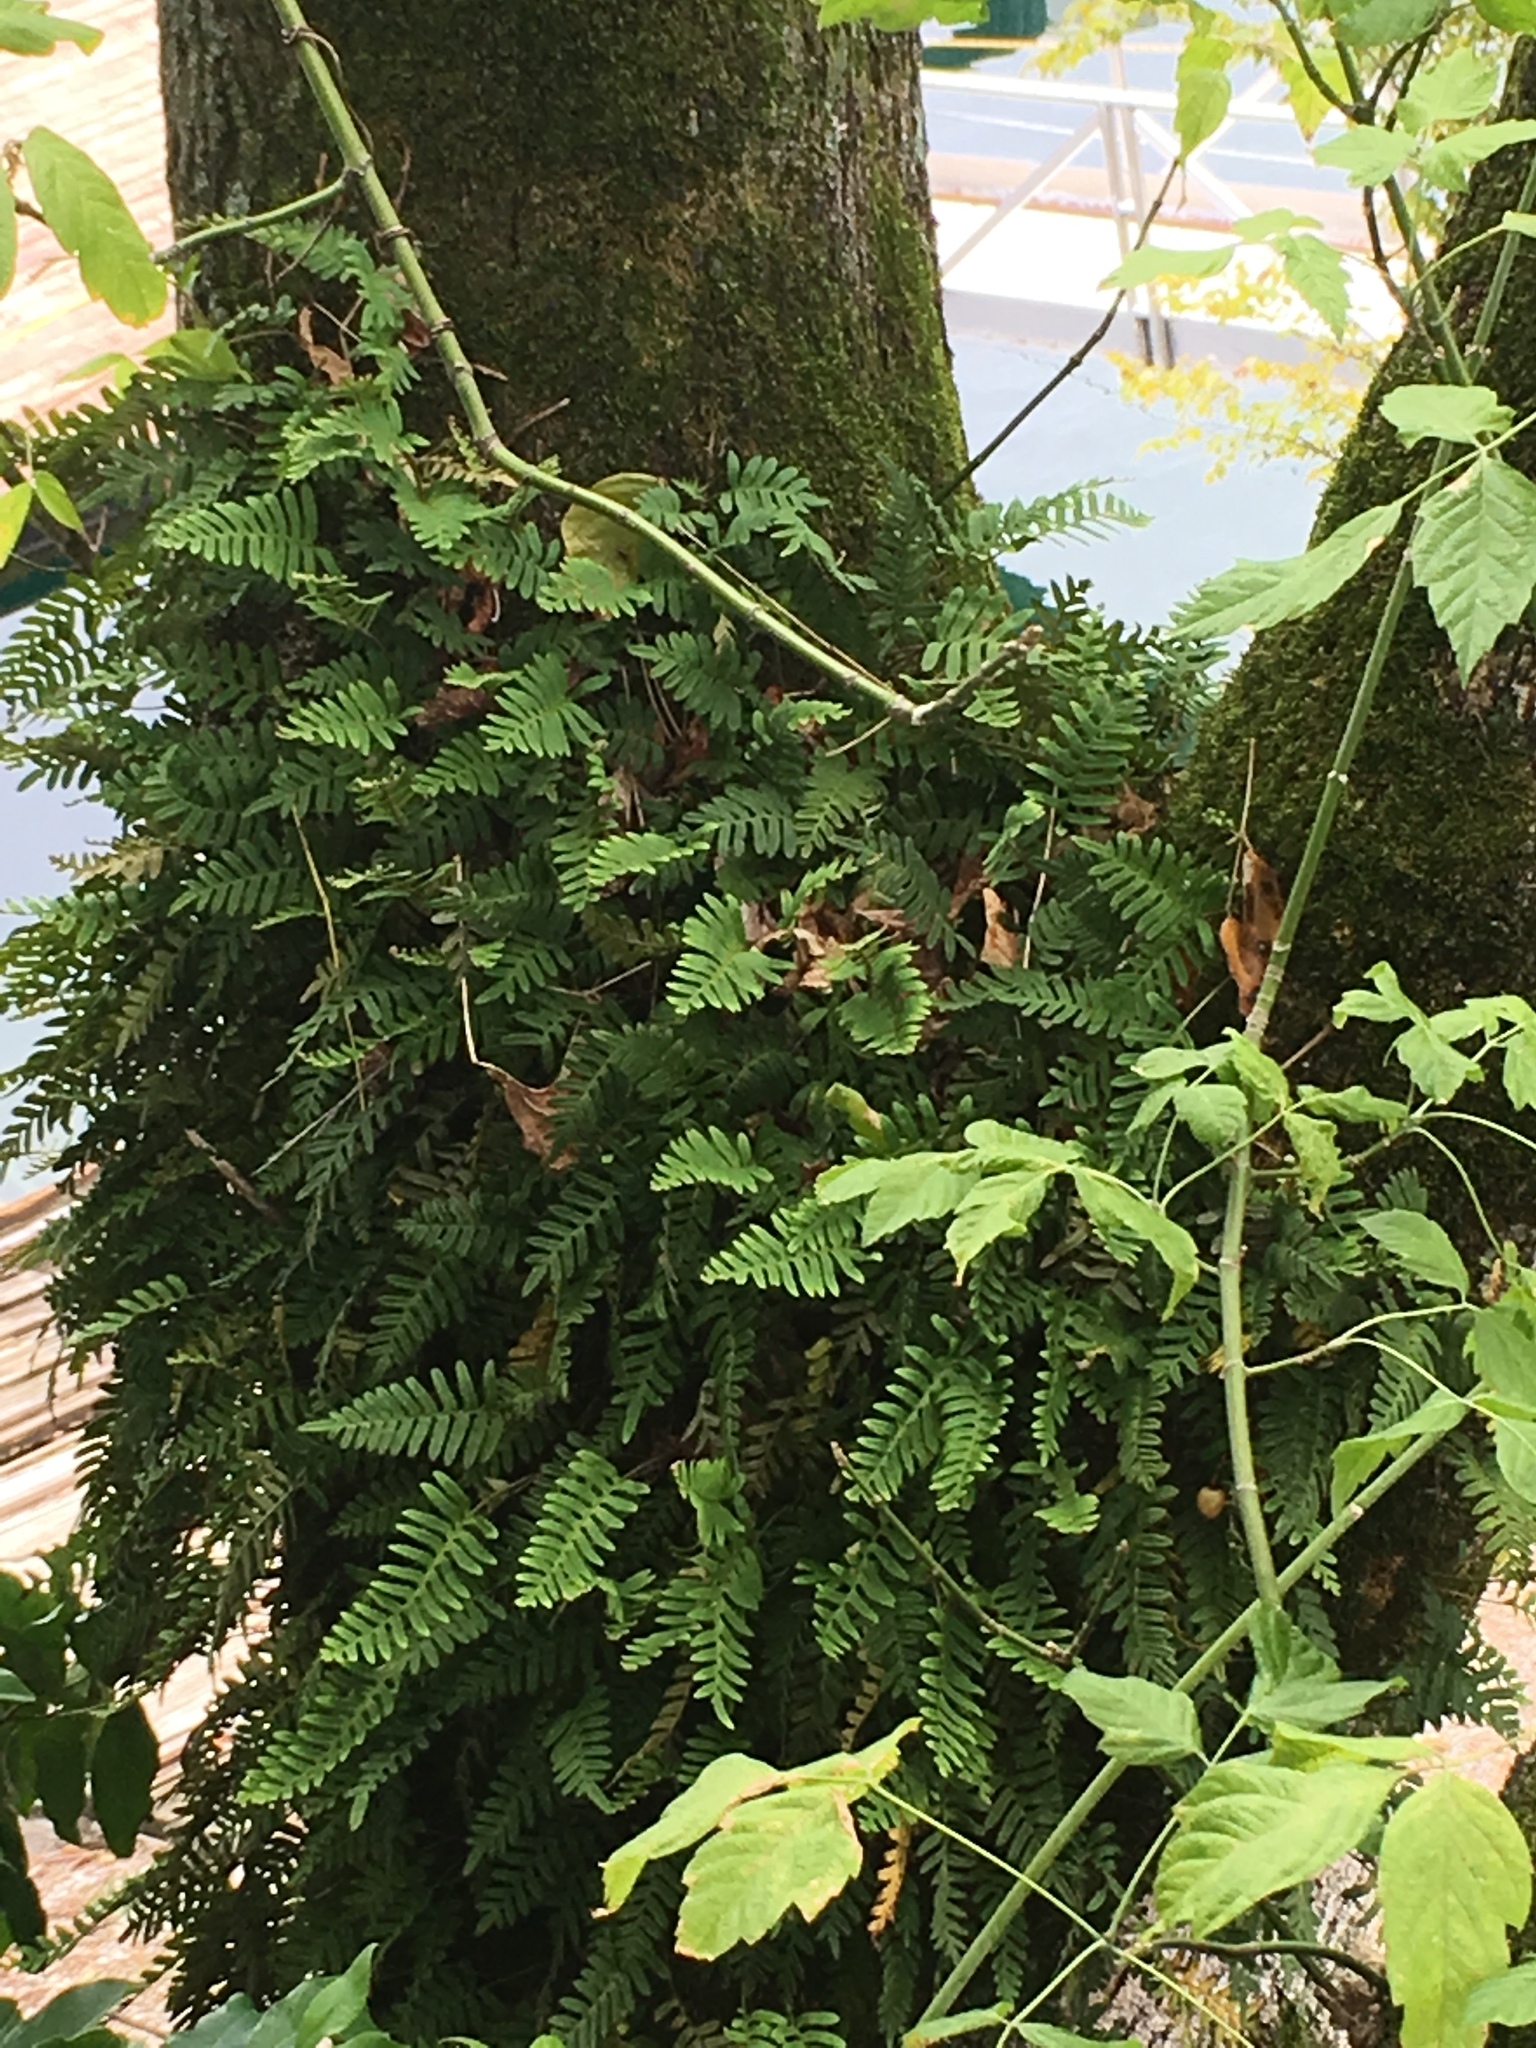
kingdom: Plantae
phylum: Tracheophyta
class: Polypodiopsida
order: Polypodiales
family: Polypodiaceae
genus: Pleopeltis
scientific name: Pleopeltis michauxiana
